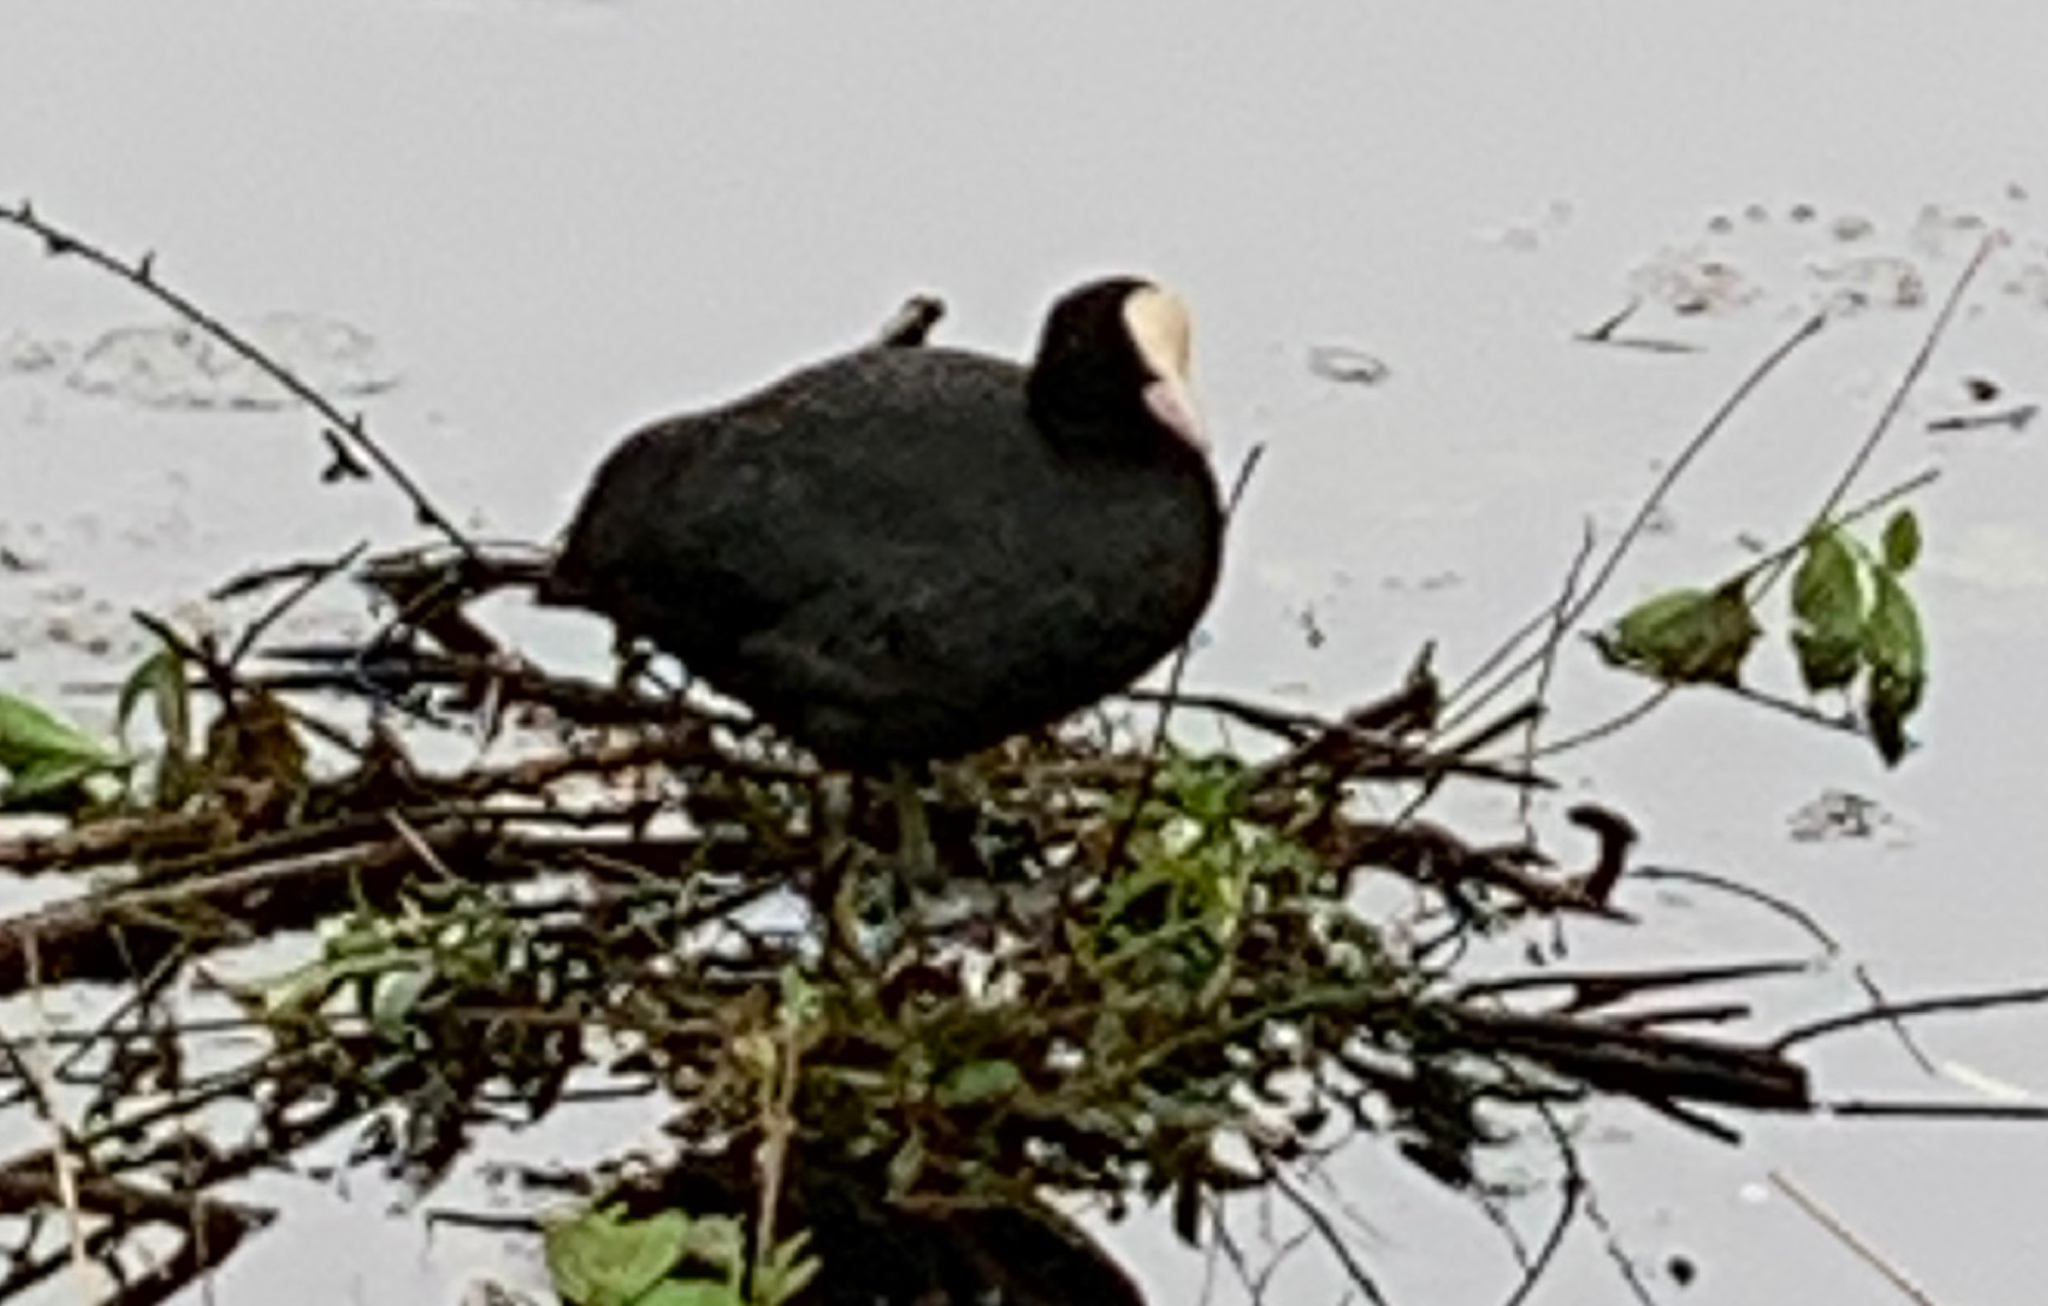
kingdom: Animalia
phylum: Chordata
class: Aves
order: Gruiformes
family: Rallidae
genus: Fulica
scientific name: Fulica atra
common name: Eurasian coot
